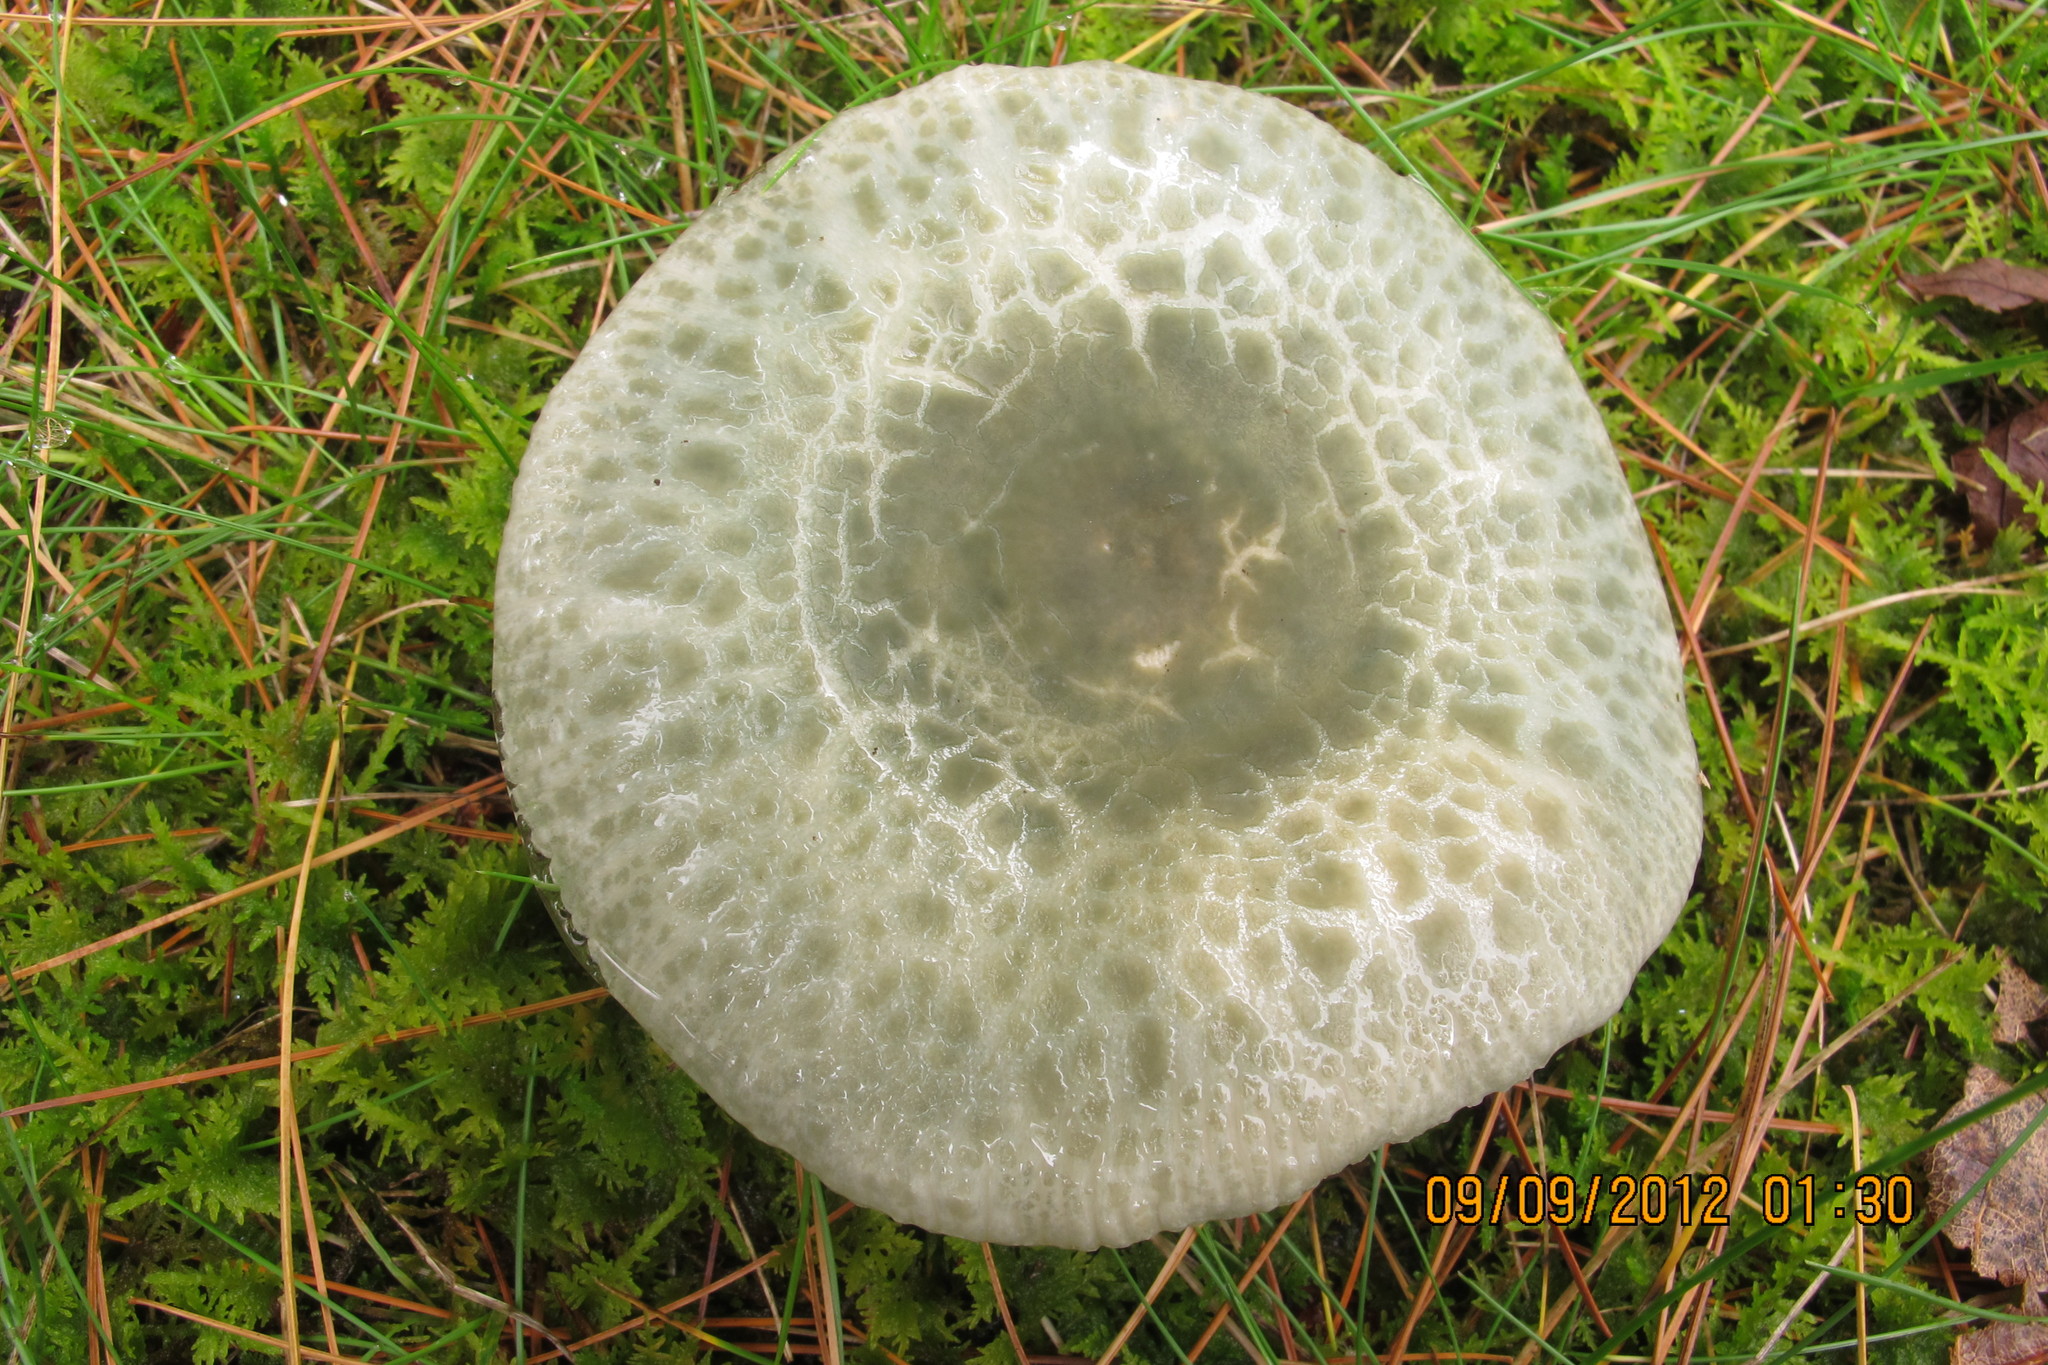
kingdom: Fungi
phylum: Basidiomycota
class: Agaricomycetes
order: Russulales
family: Russulaceae
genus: Russula
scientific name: Russula parvovirescens
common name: Blue-green cracking russula
